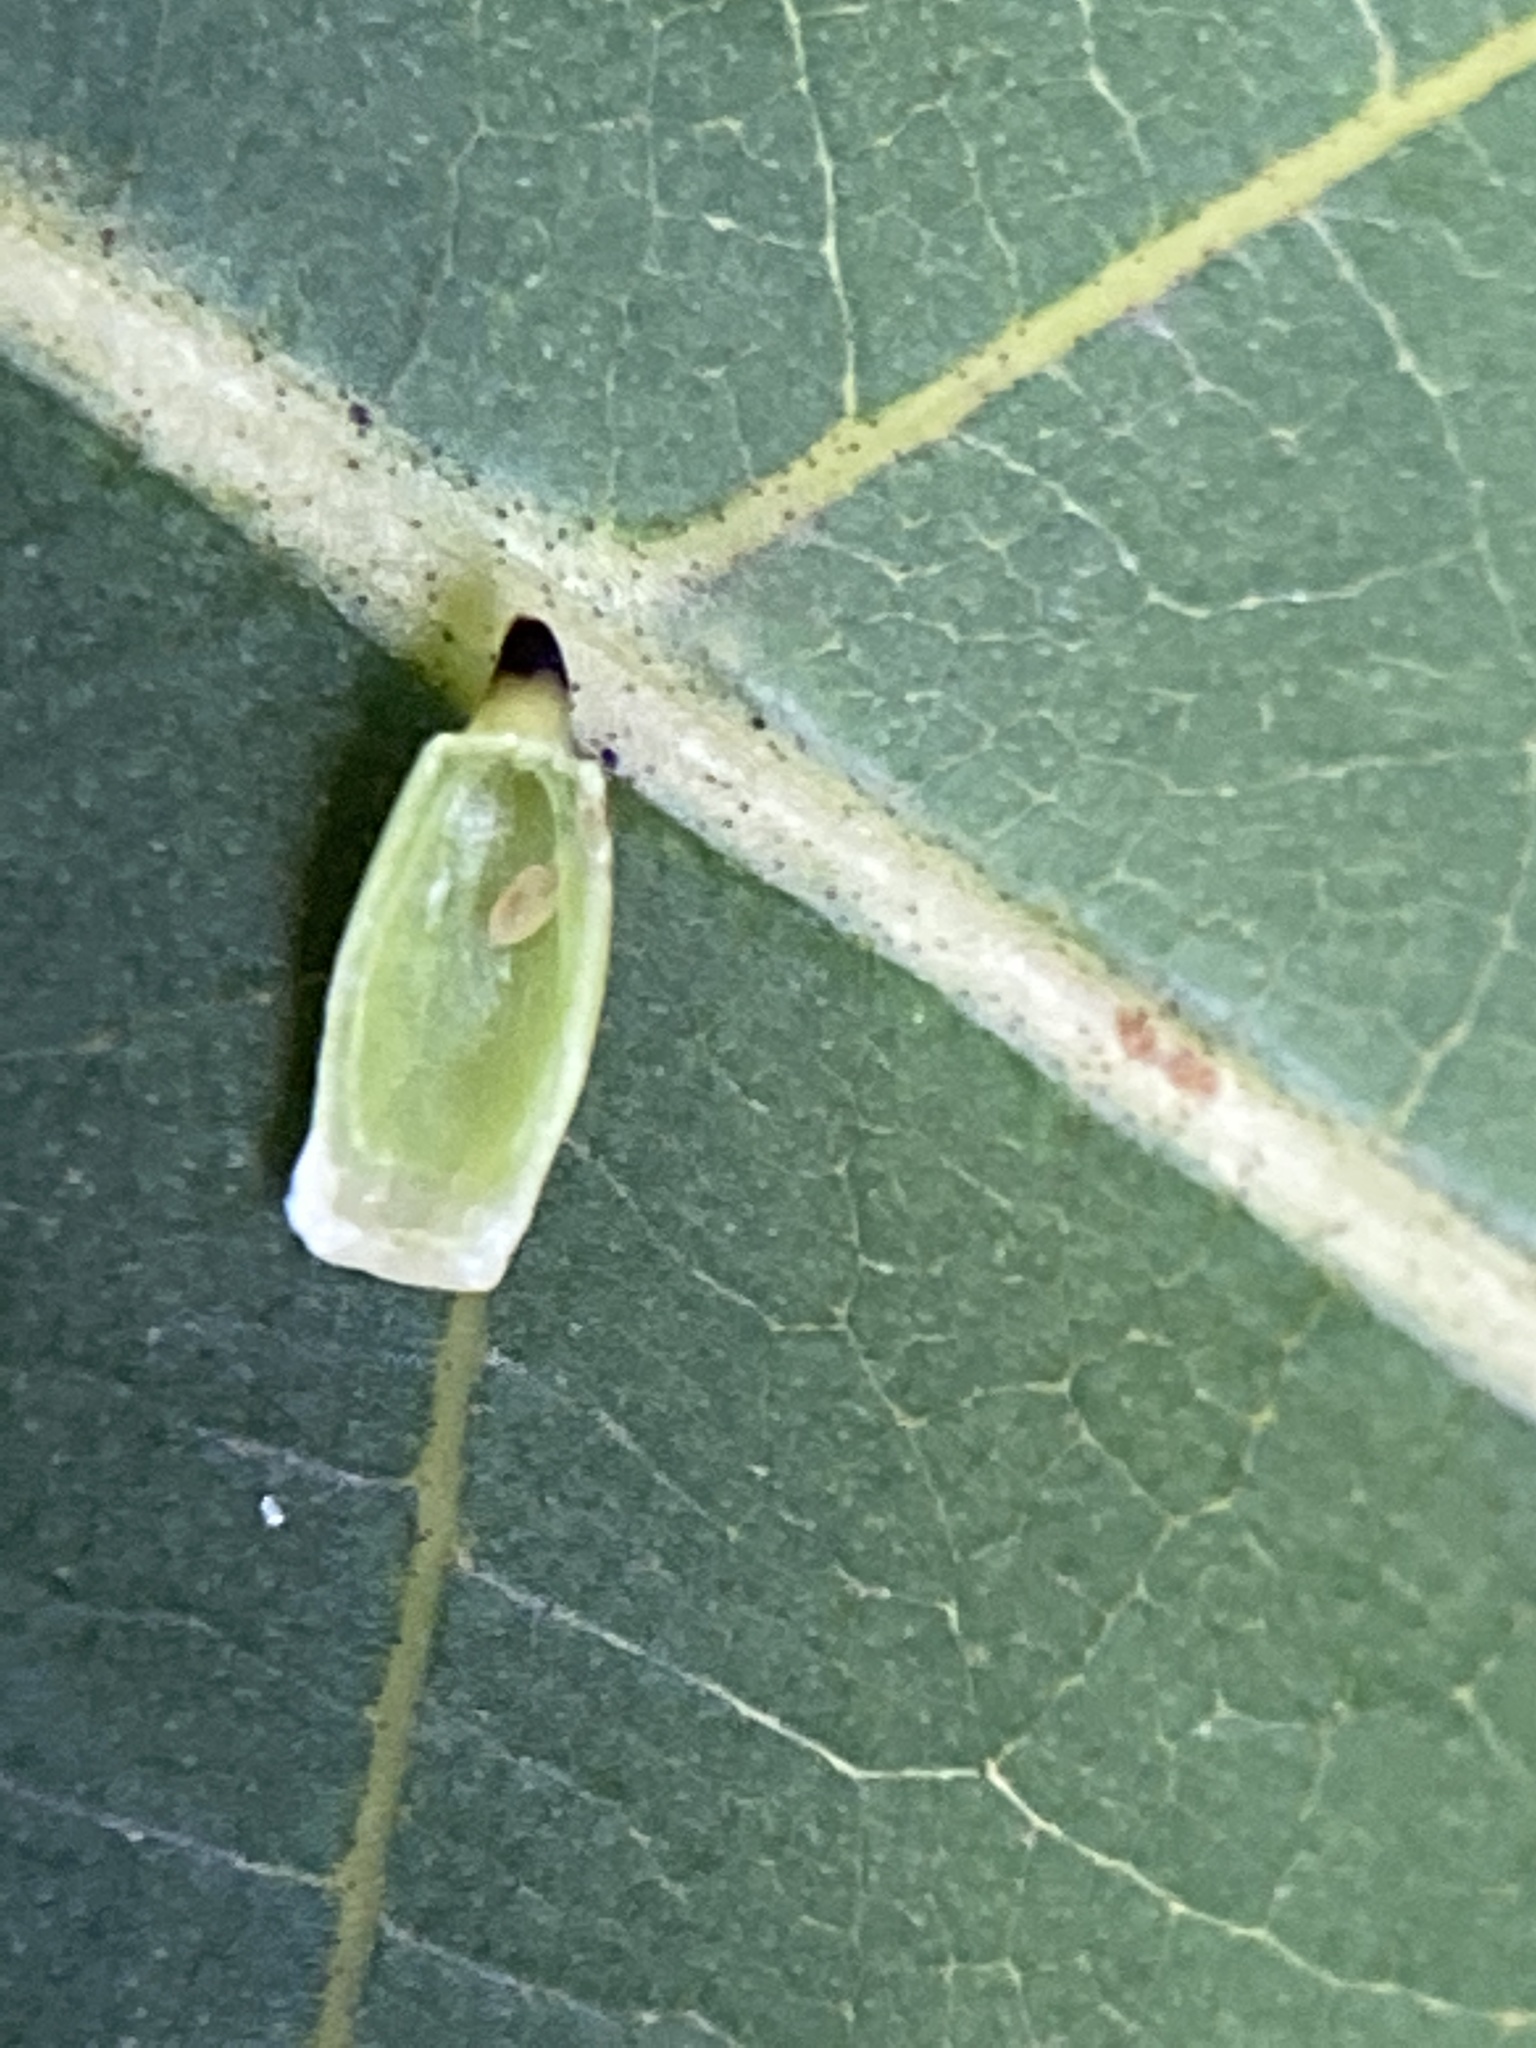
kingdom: Animalia
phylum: Arthropoda
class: Insecta
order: Diptera
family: Cecidomyiidae
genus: Caryomyia
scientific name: Caryomyia urnula
